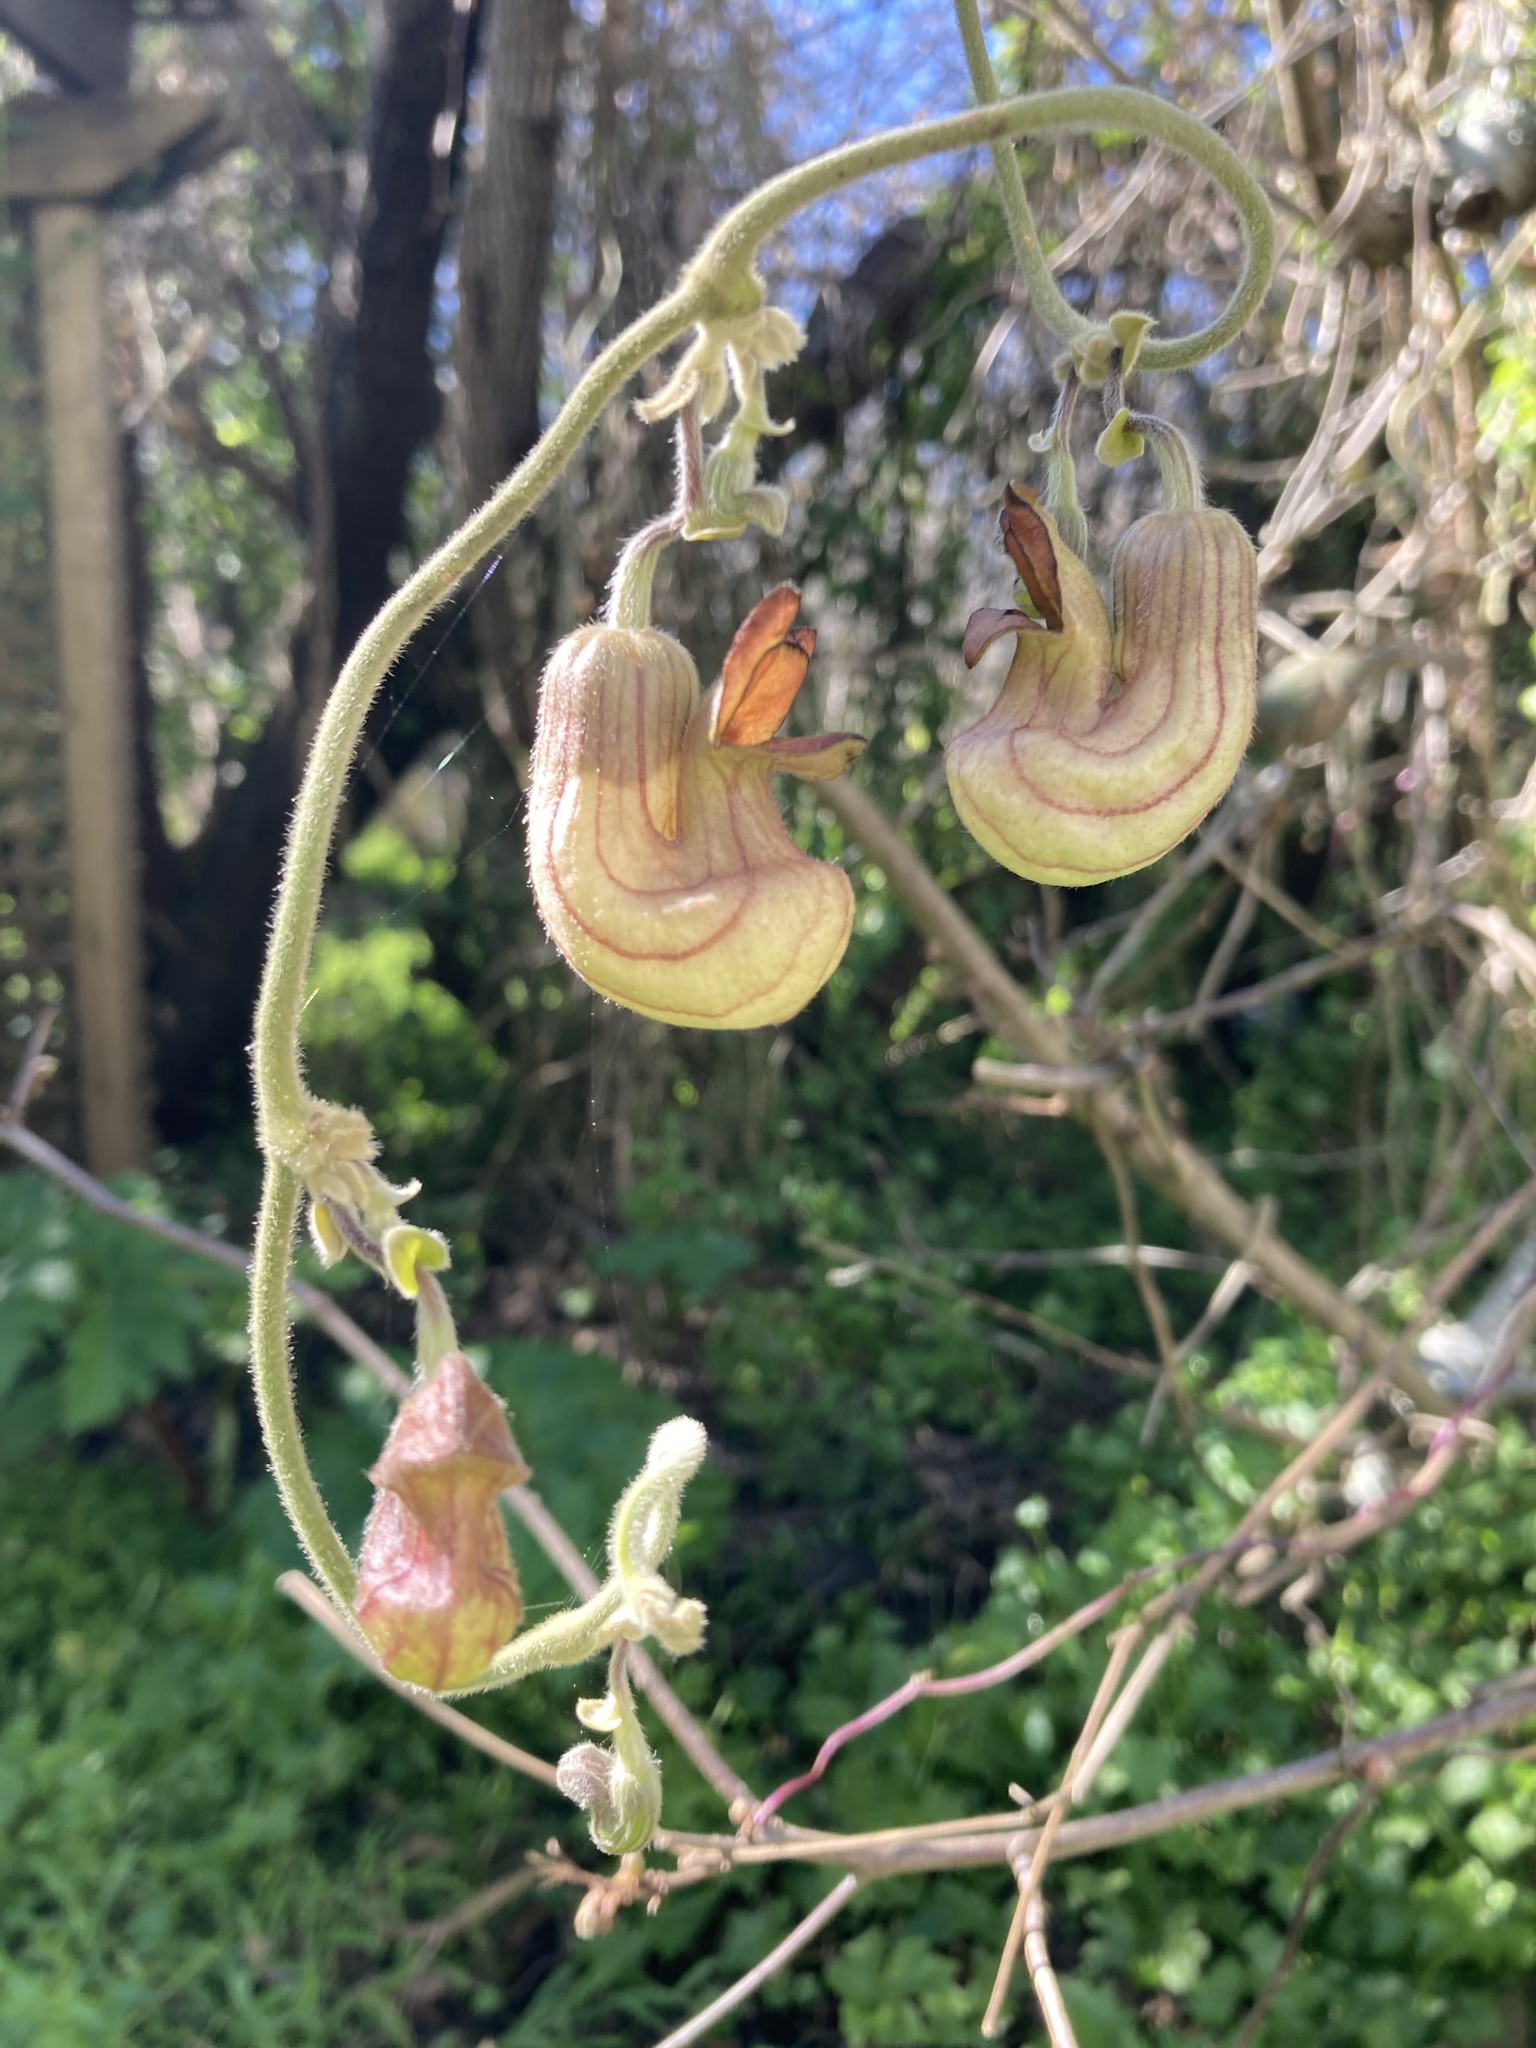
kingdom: Plantae
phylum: Tracheophyta
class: Magnoliopsida
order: Piperales
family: Aristolochiaceae
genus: Isotrema
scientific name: Isotrema californicum
